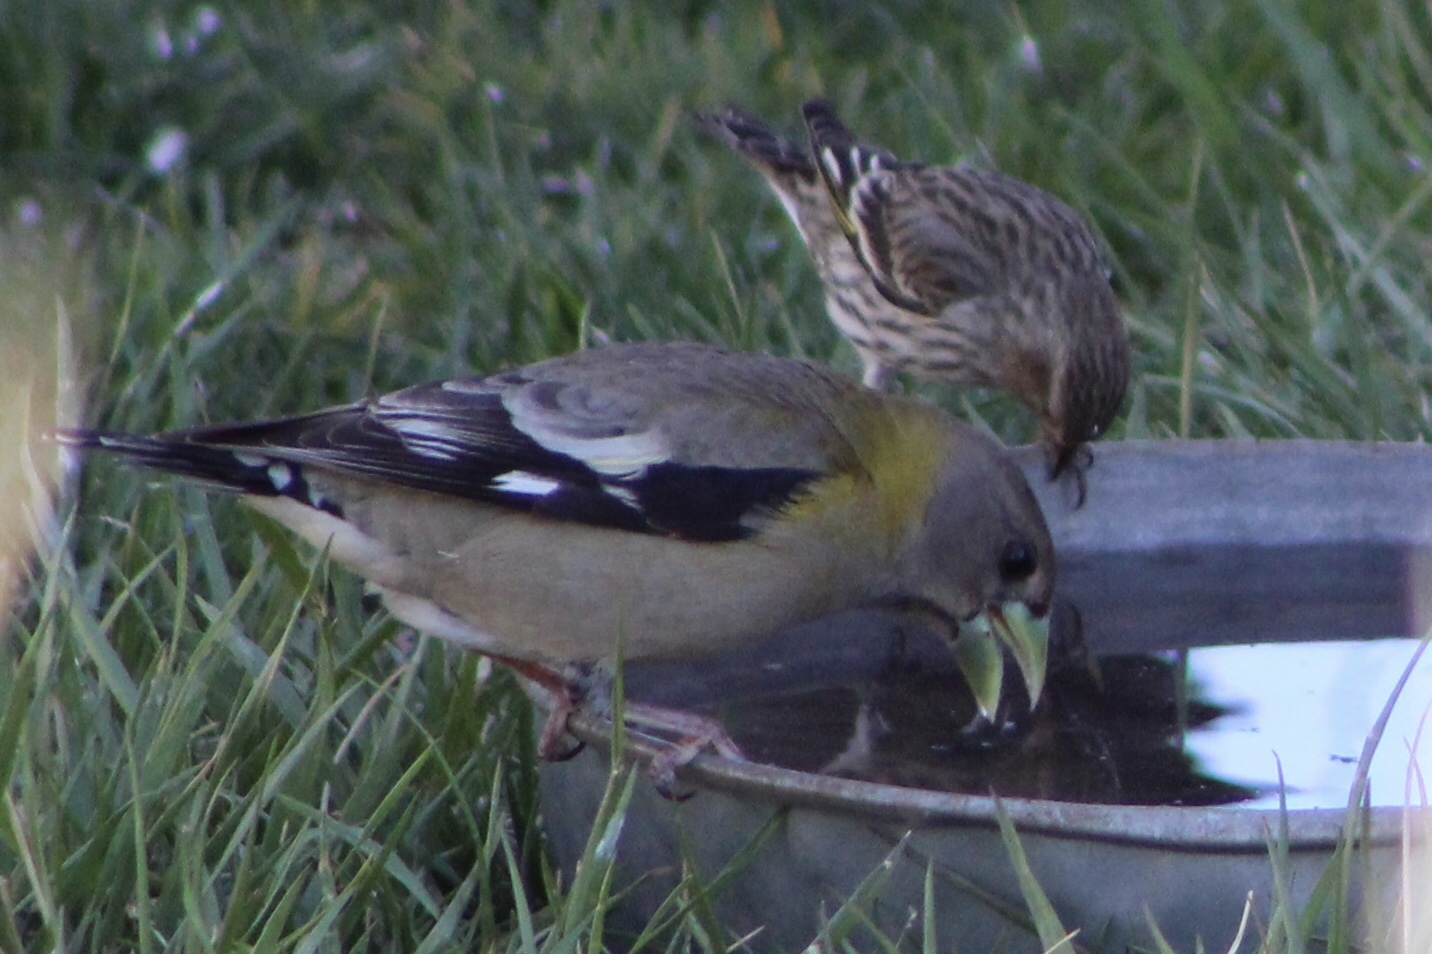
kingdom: Animalia
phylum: Chordata
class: Aves
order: Passeriformes
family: Fringillidae
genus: Hesperiphona
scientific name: Hesperiphona vespertina
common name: Evening grosbeak
